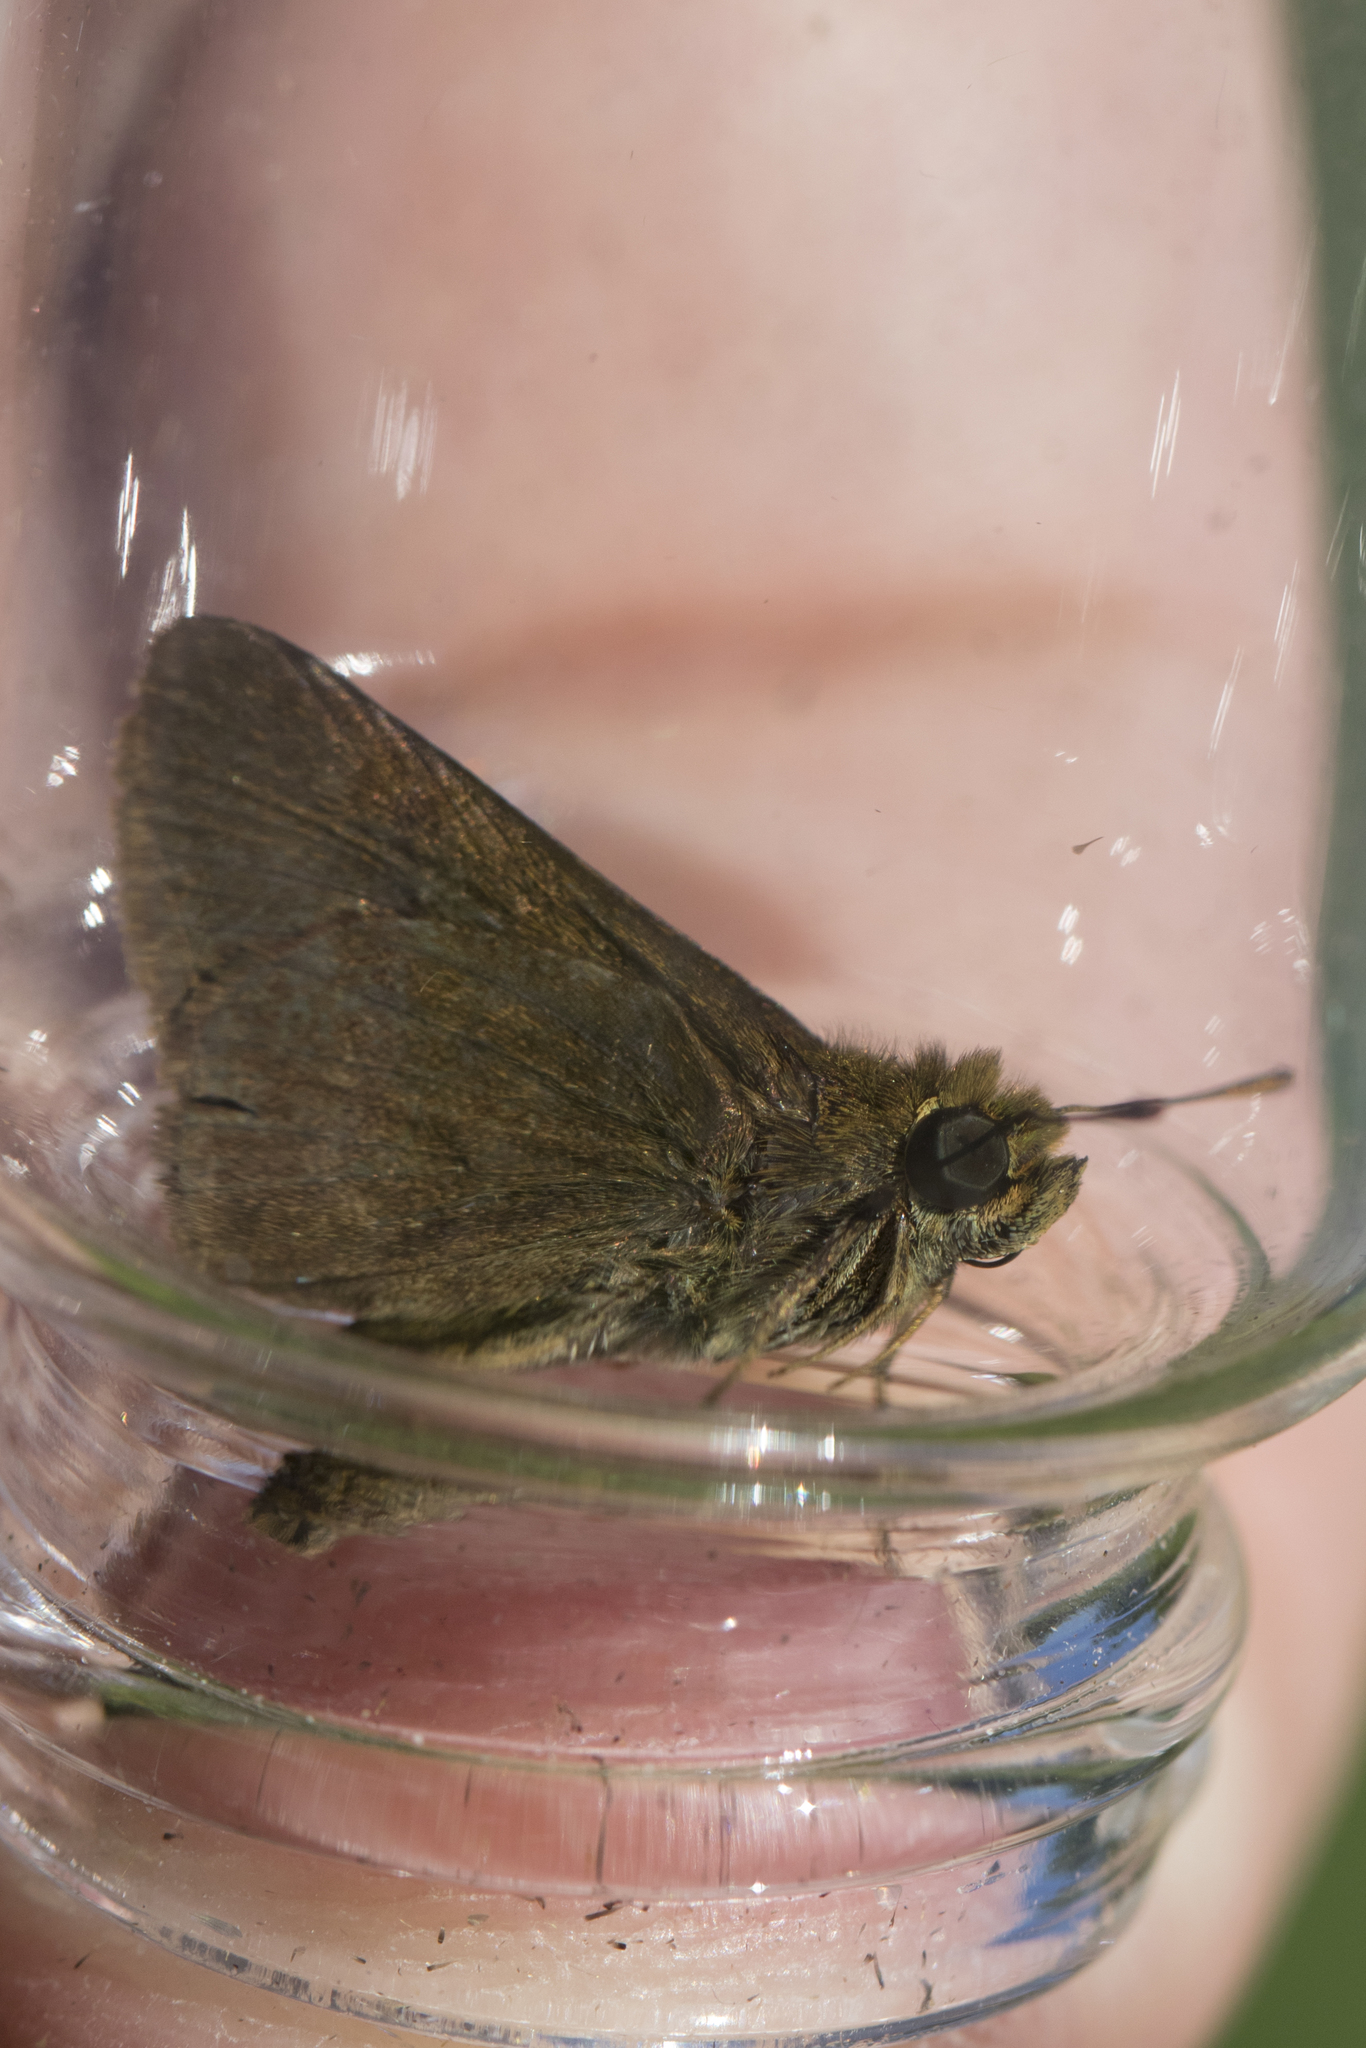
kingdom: Animalia
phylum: Arthropoda
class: Insecta
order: Lepidoptera
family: Hesperiidae
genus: Euphyes
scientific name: Euphyes vestris
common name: Dun skipper
